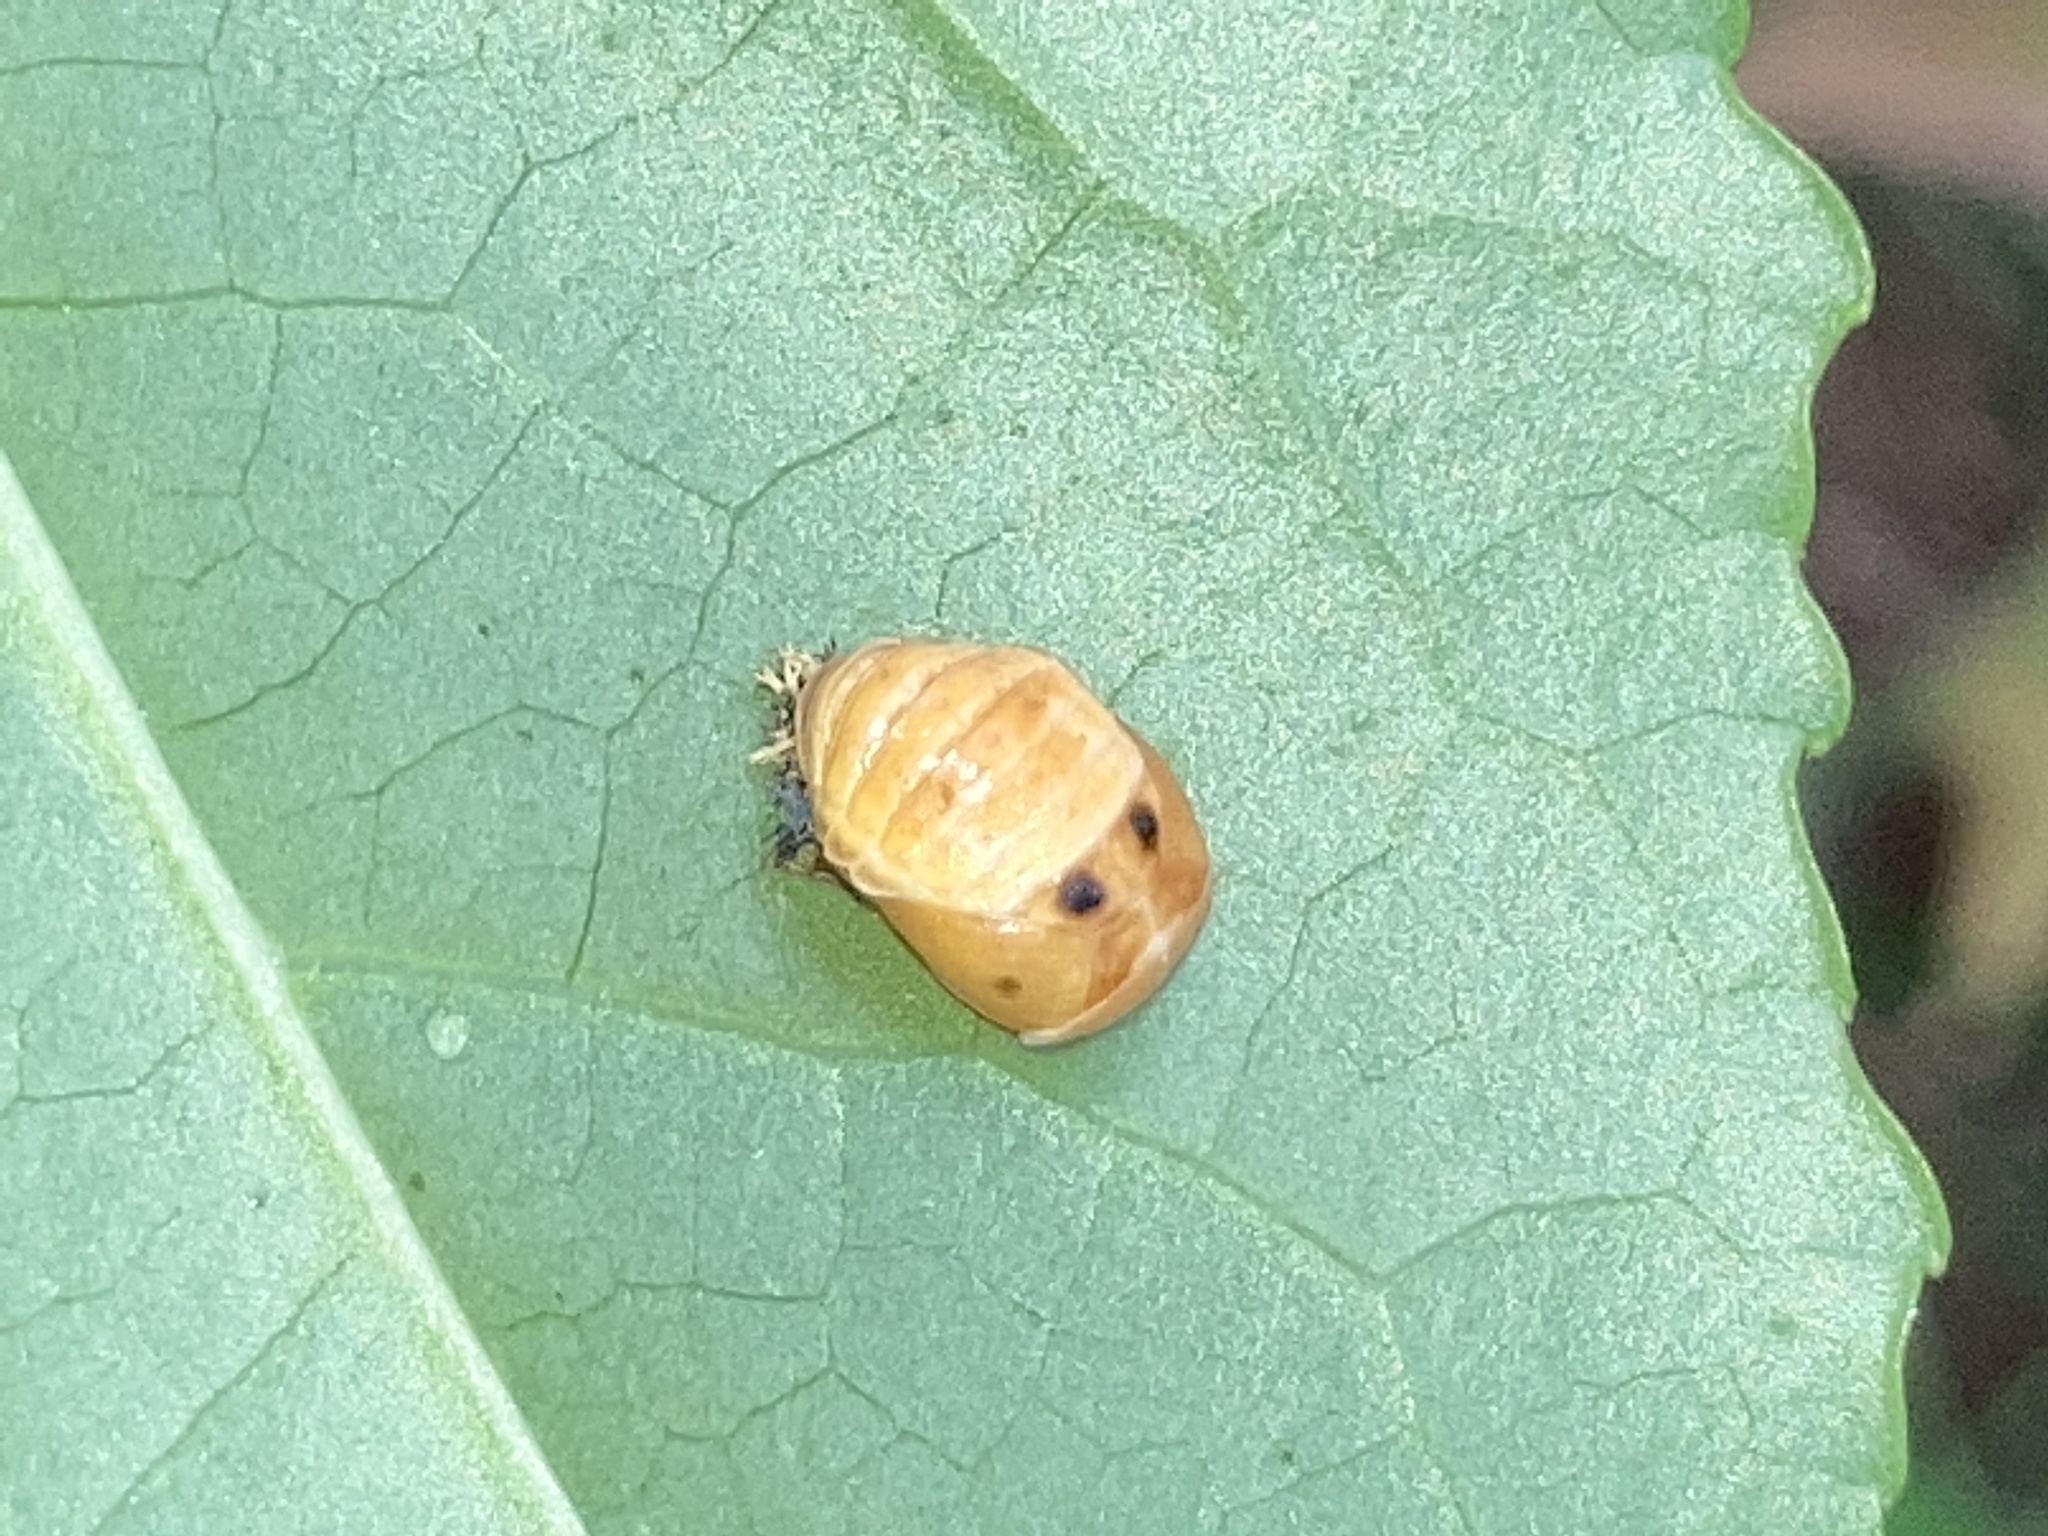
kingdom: Animalia
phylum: Arthropoda
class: Insecta
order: Coleoptera
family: Coccinellidae
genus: Harmonia
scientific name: Harmonia axyridis
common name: Harlequin ladybird
